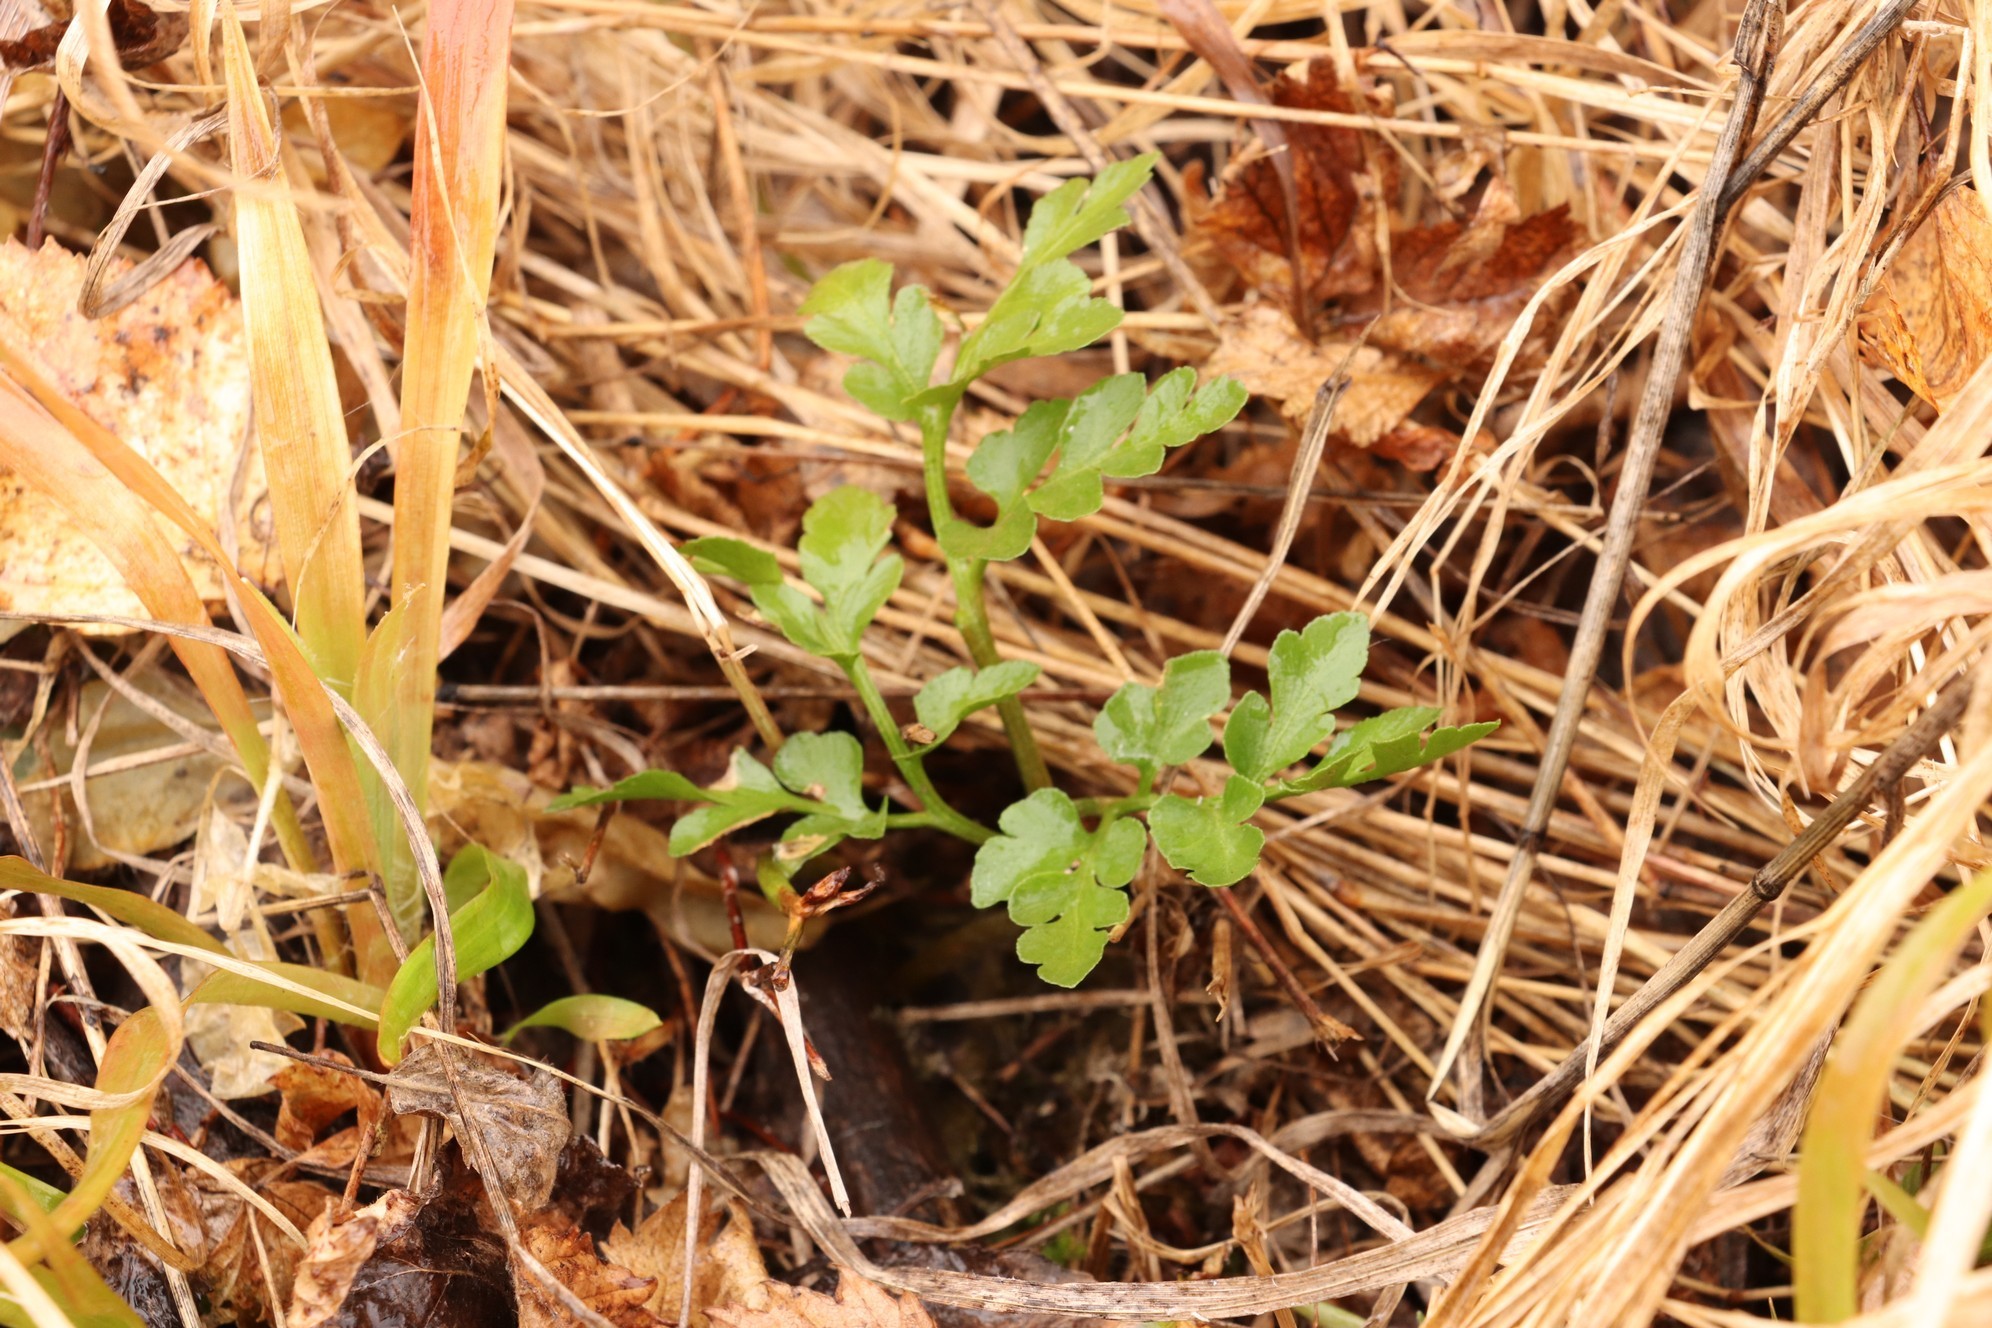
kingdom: Plantae
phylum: Tracheophyta
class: Polypodiopsida
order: Ophioglossales
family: Ophioglossaceae
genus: Sceptridium
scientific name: Sceptridium multifidum
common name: Leathery grape fern
